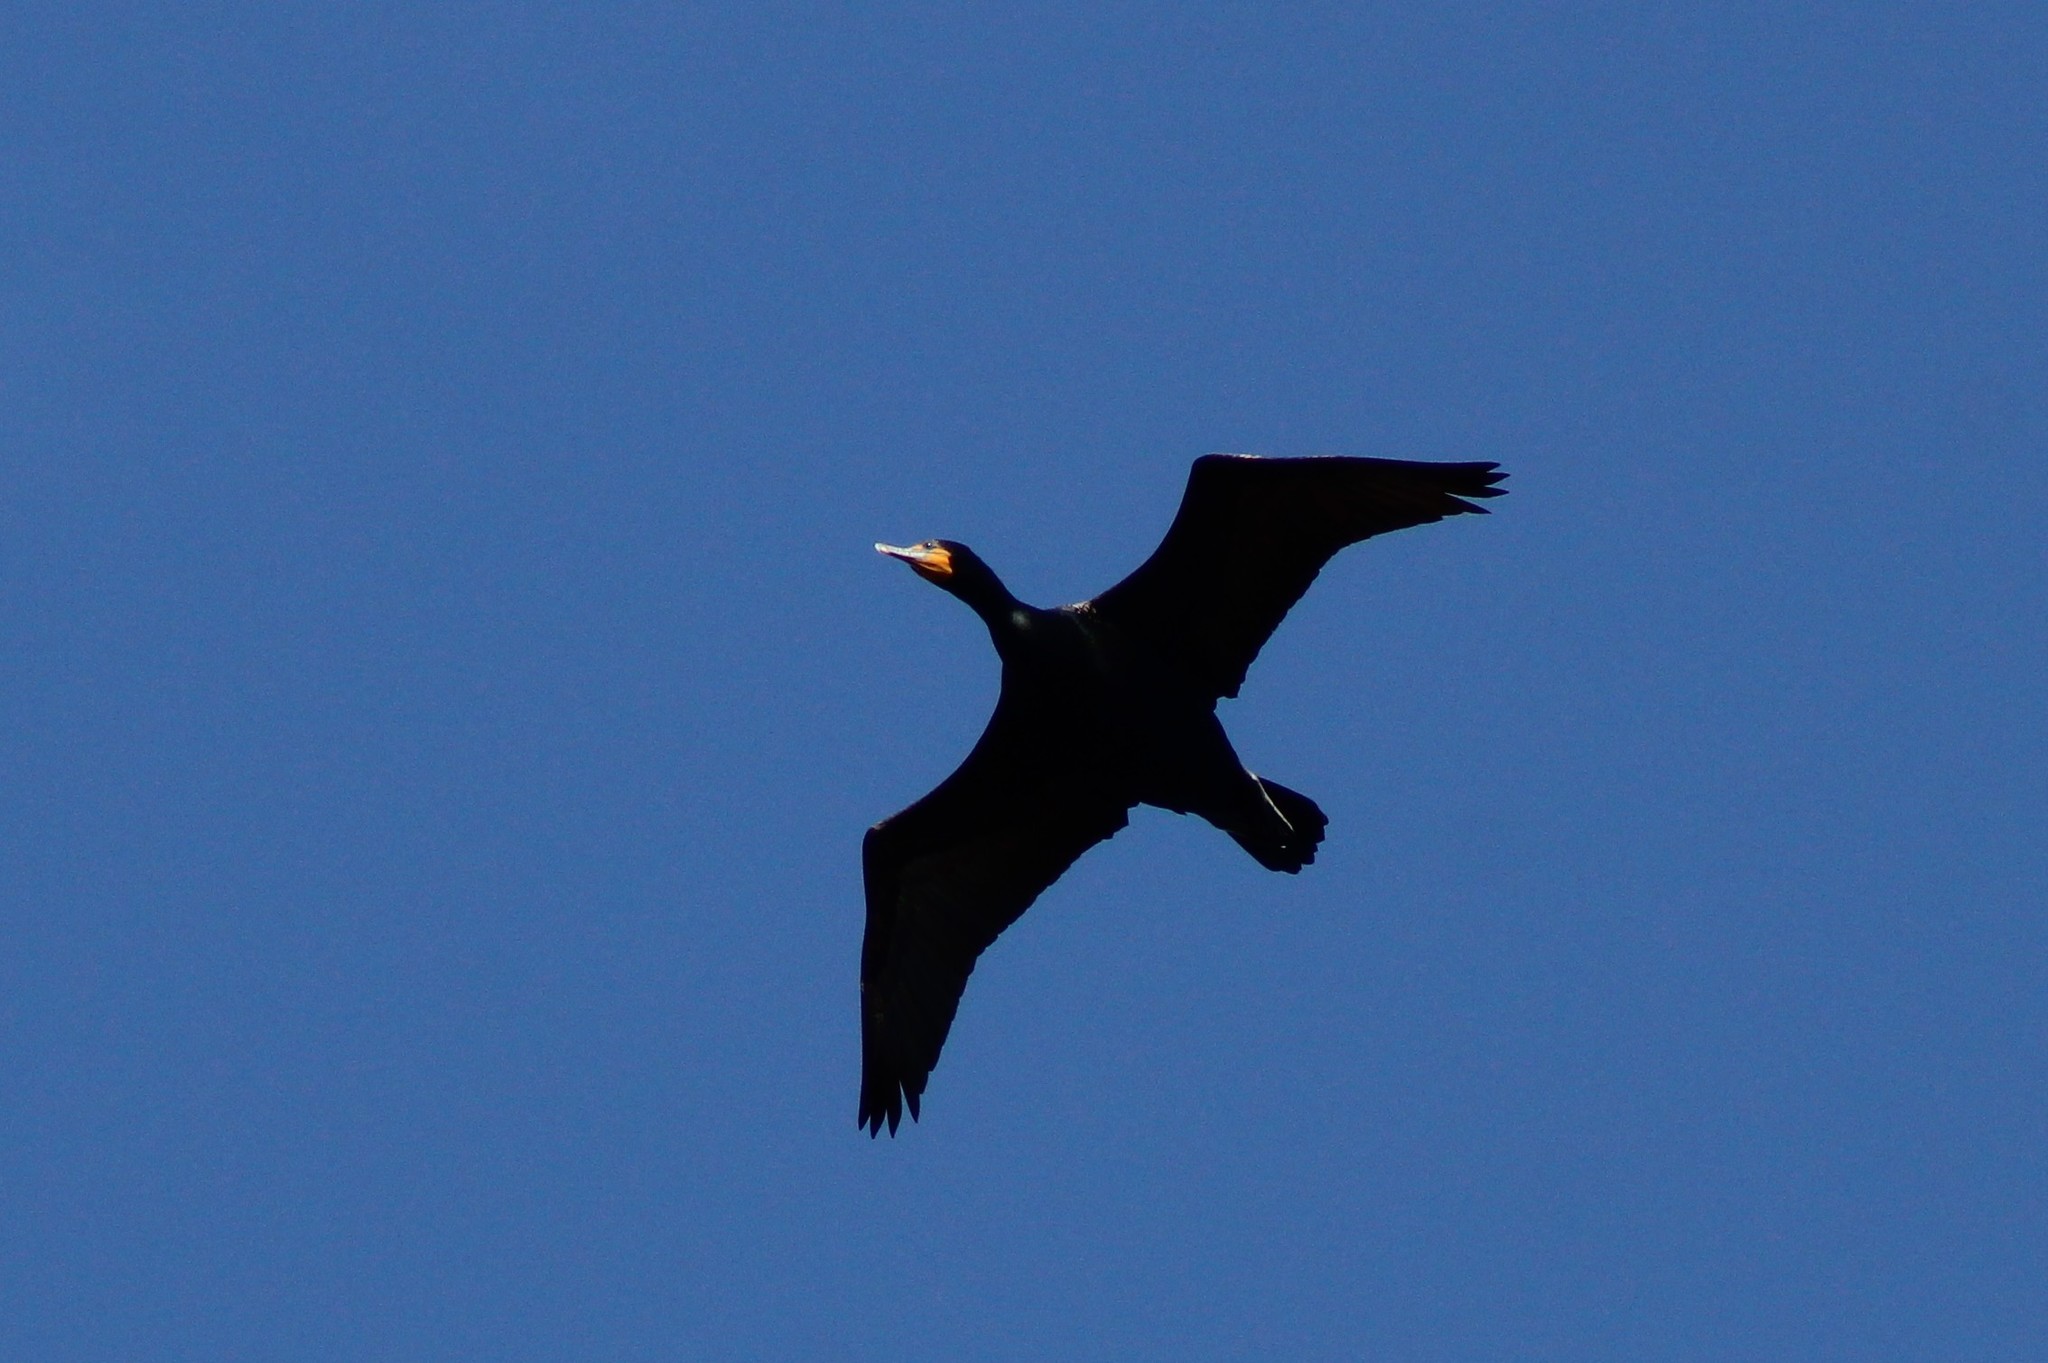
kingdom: Animalia
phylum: Chordata
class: Aves
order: Suliformes
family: Phalacrocoracidae
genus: Phalacrocorax
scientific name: Phalacrocorax auritus
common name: Double-crested cormorant
